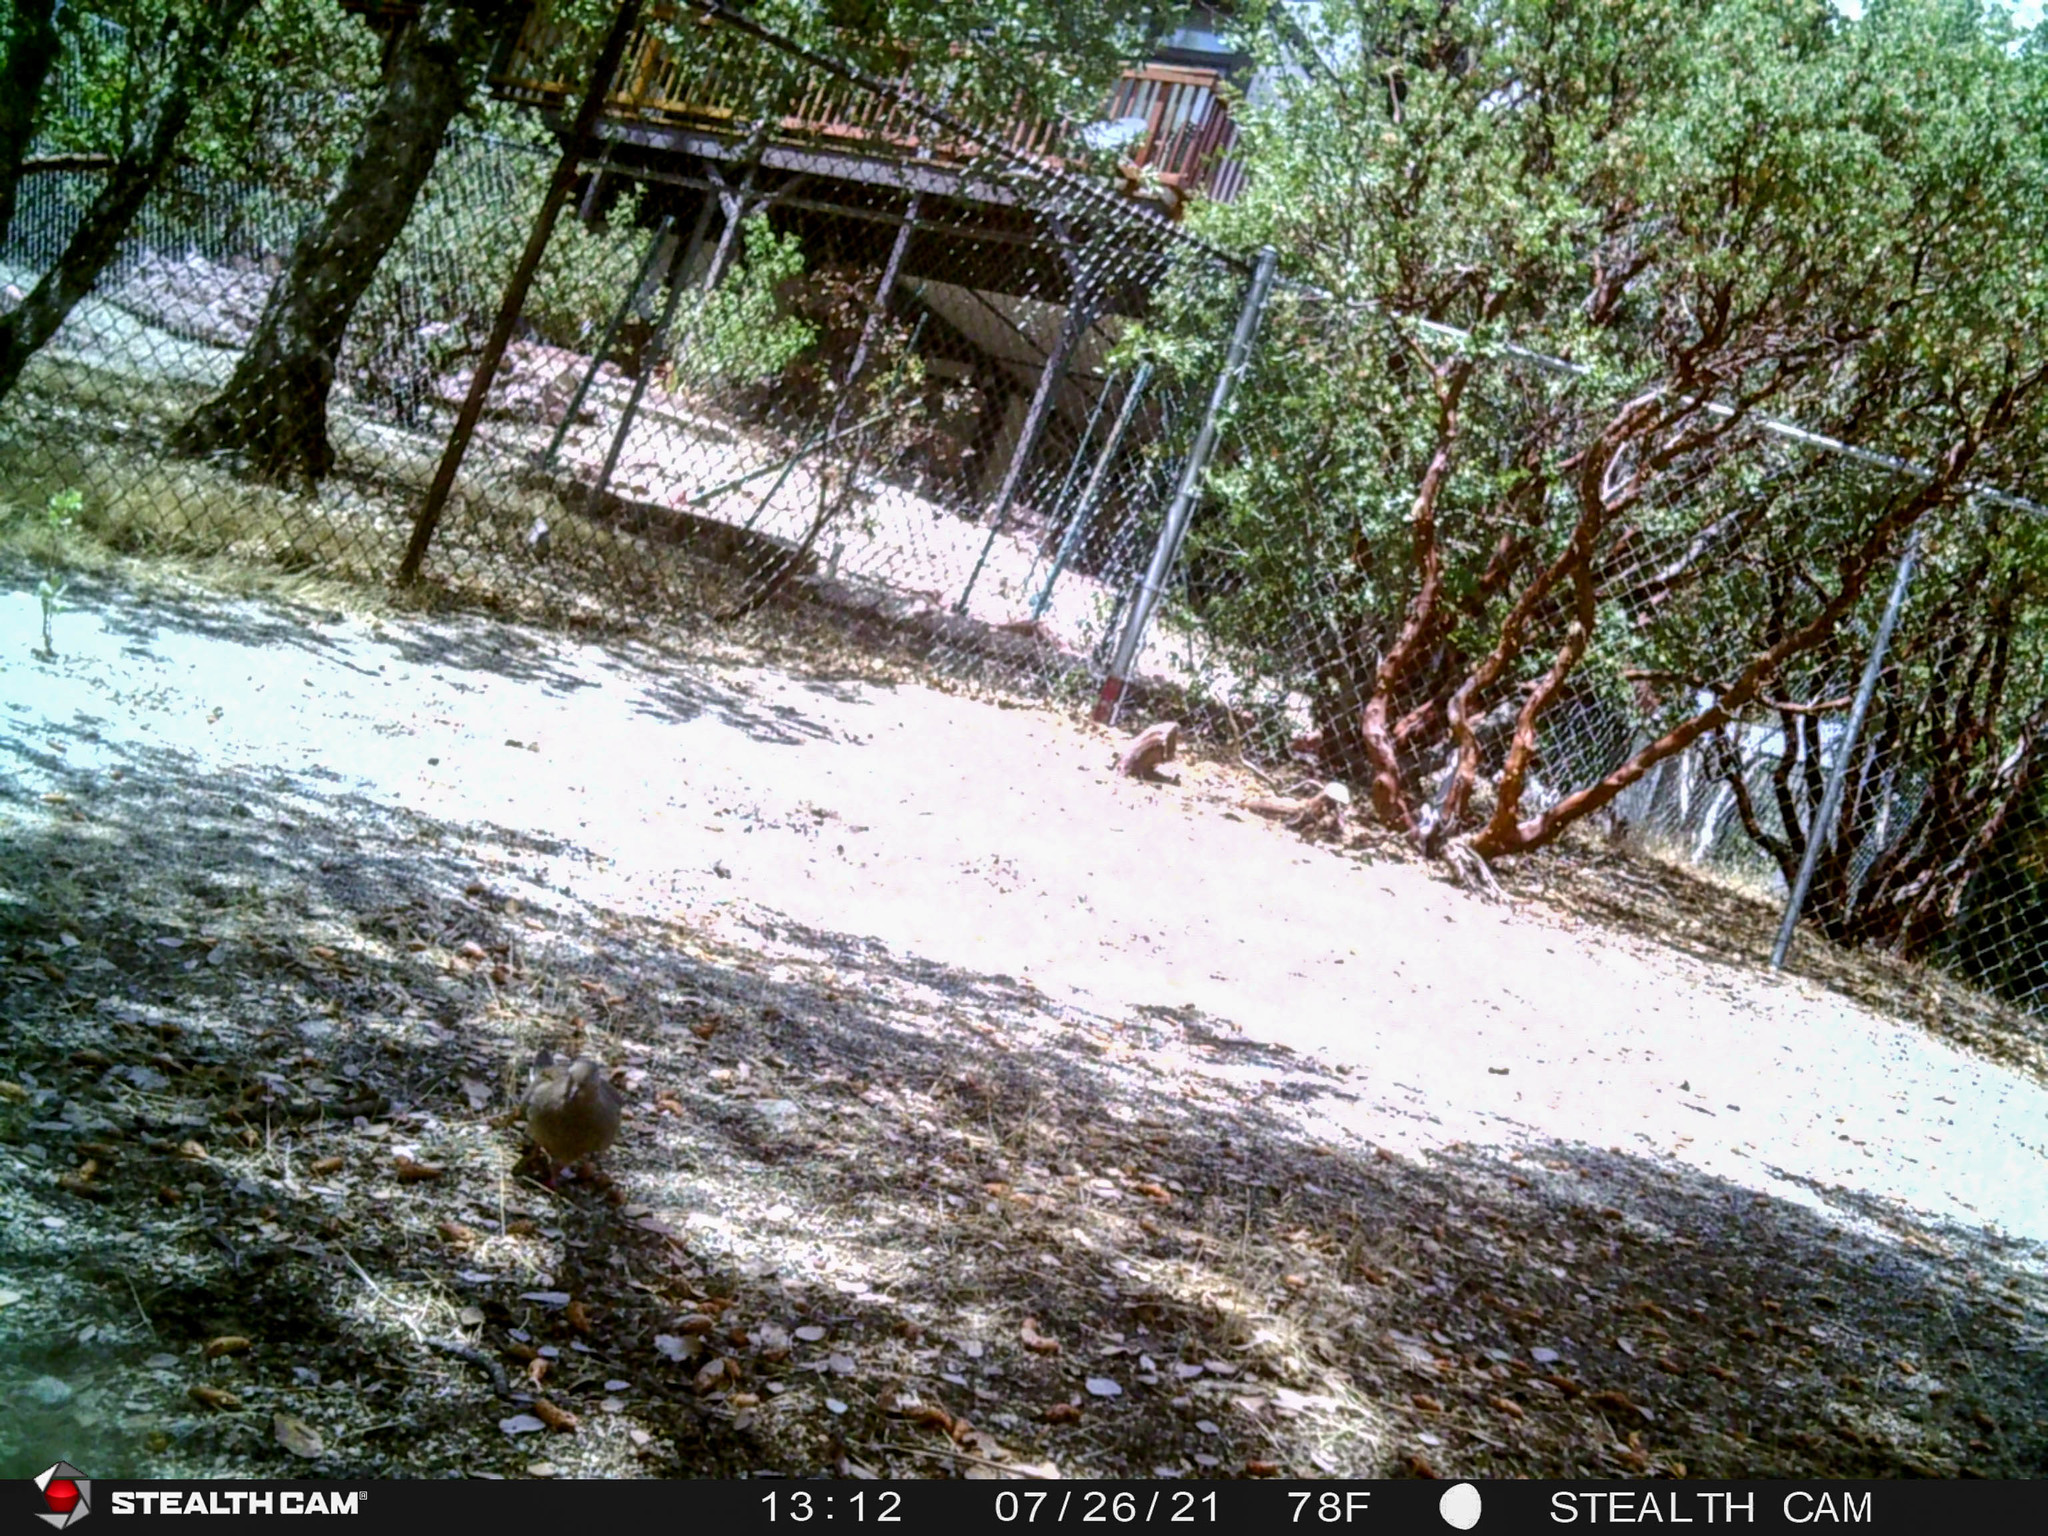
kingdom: Animalia
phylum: Chordata
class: Aves
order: Columbiformes
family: Columbidae
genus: Zenaida
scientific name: Zenaida macroura
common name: Mourning dove
